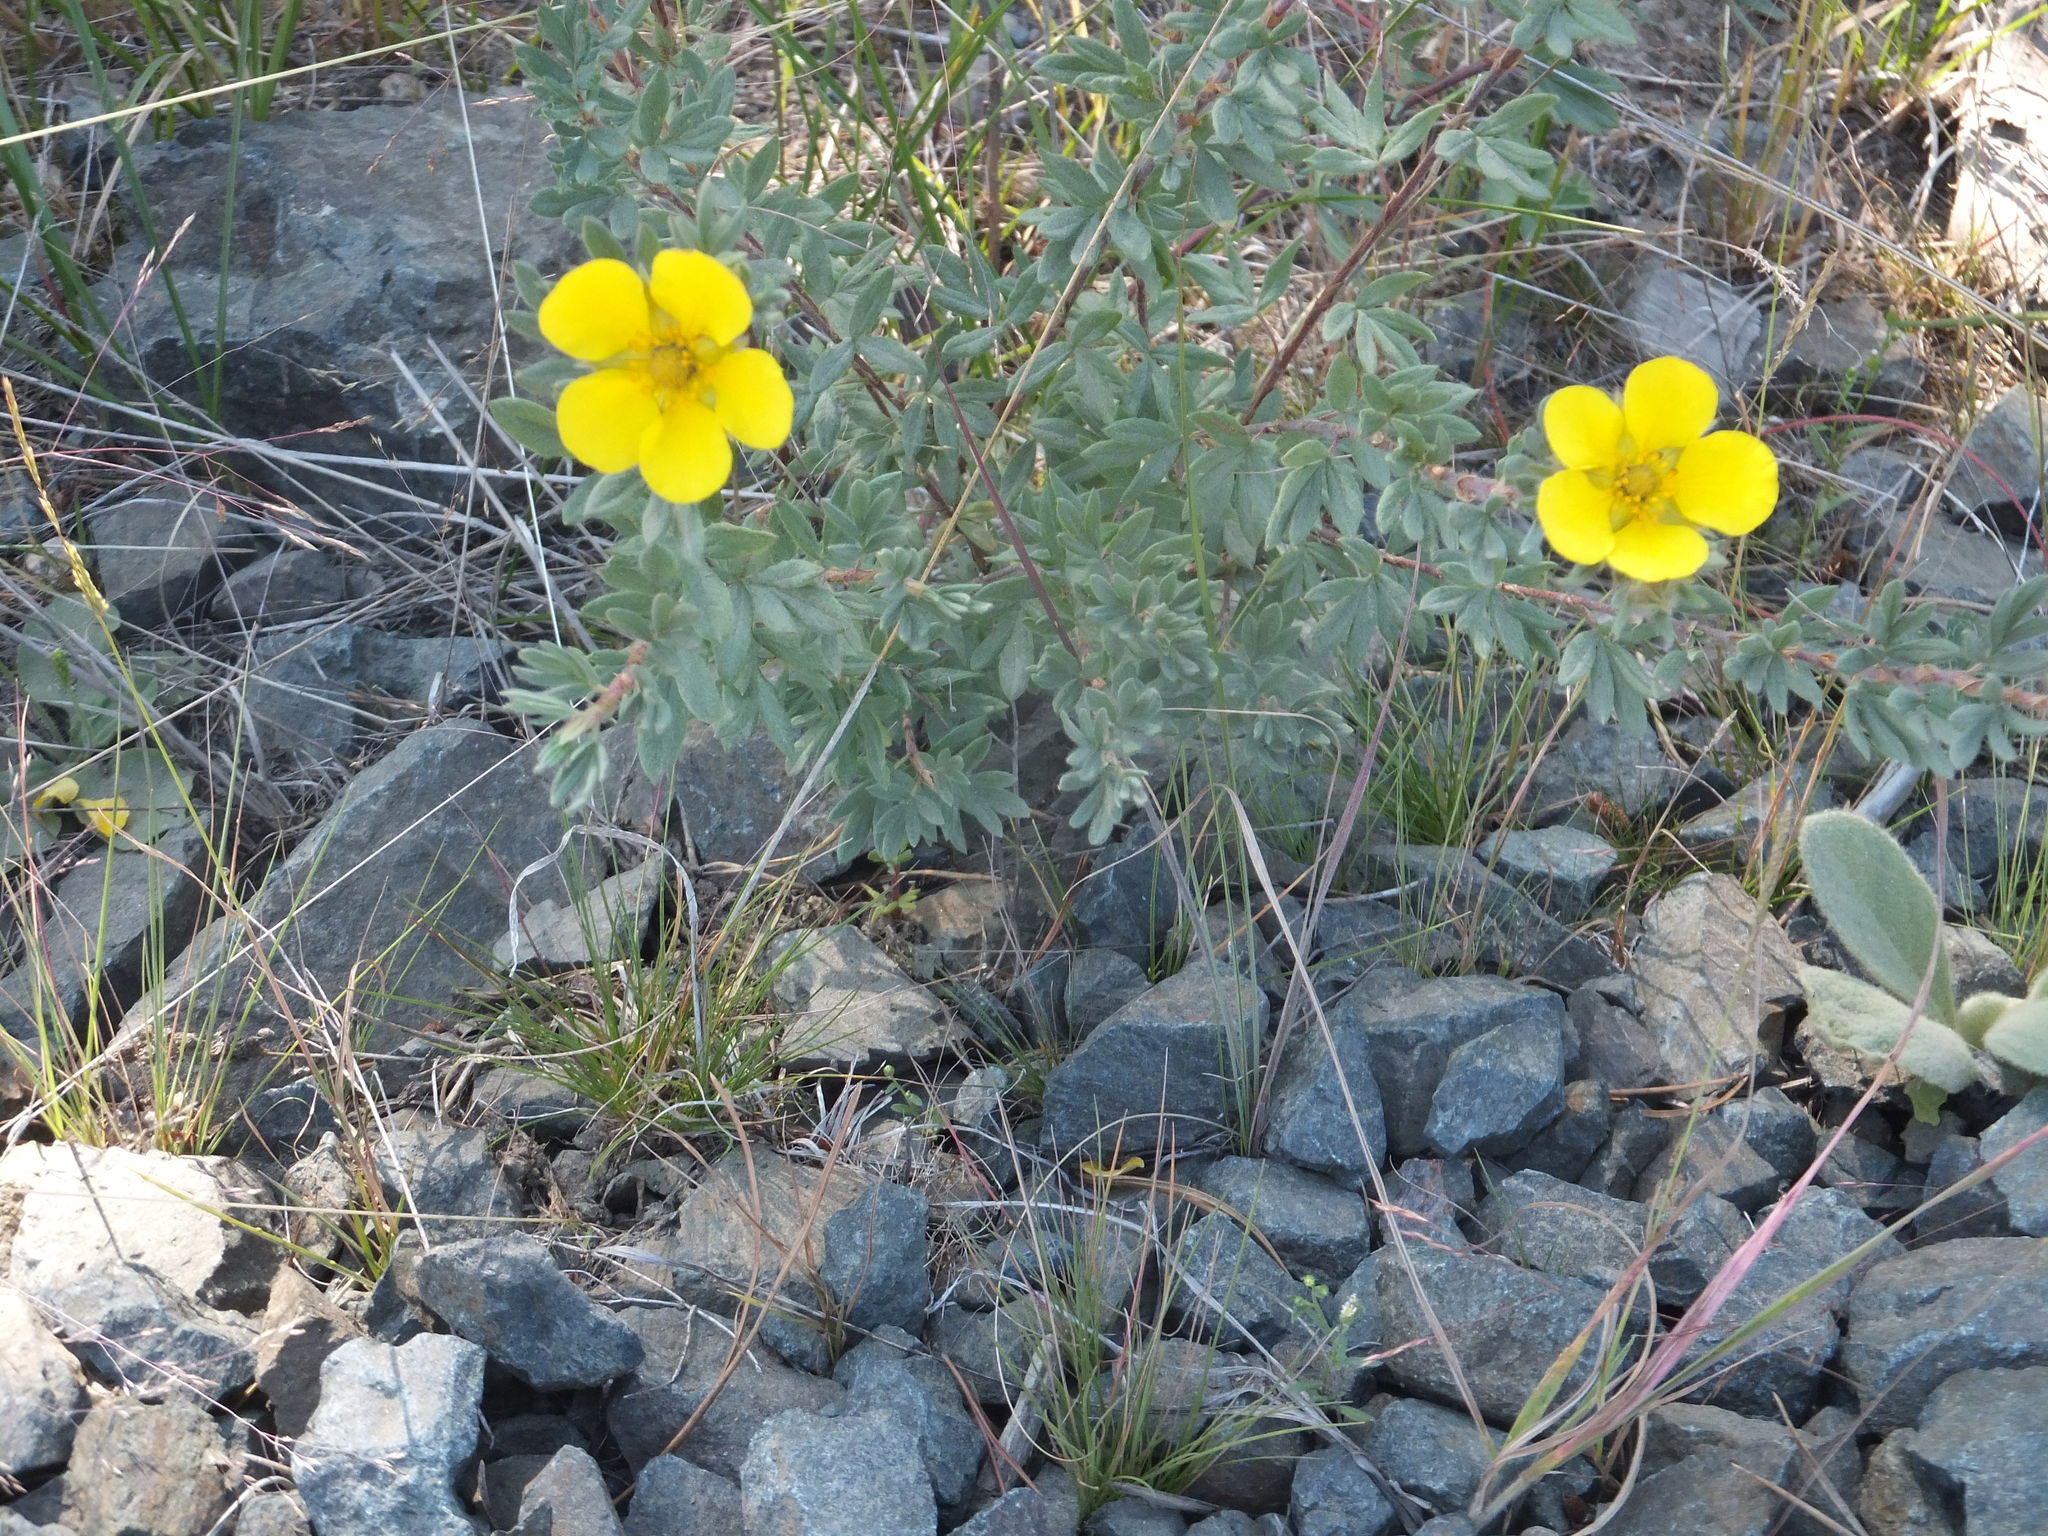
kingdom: Plantae
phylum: Tracheophyta
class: Magnoliopsida
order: Rosales
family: Rosaceae
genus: Dasiphora
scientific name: Dasiphora fruticosa
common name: Shrubby cinquefoil
